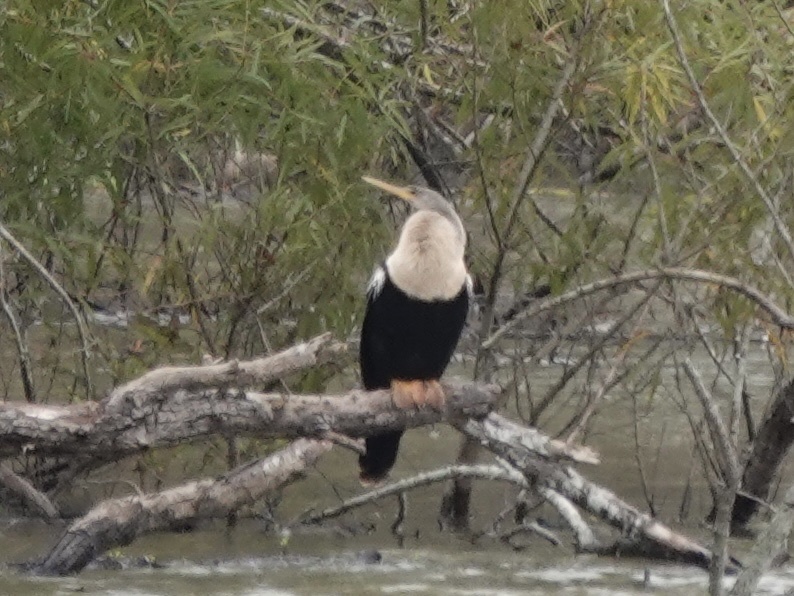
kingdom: Animalia
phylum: Chordata
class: Aves
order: Suliformes
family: Anhingidae
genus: Anhinga
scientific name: Anhinga anhinga
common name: Anhinga
